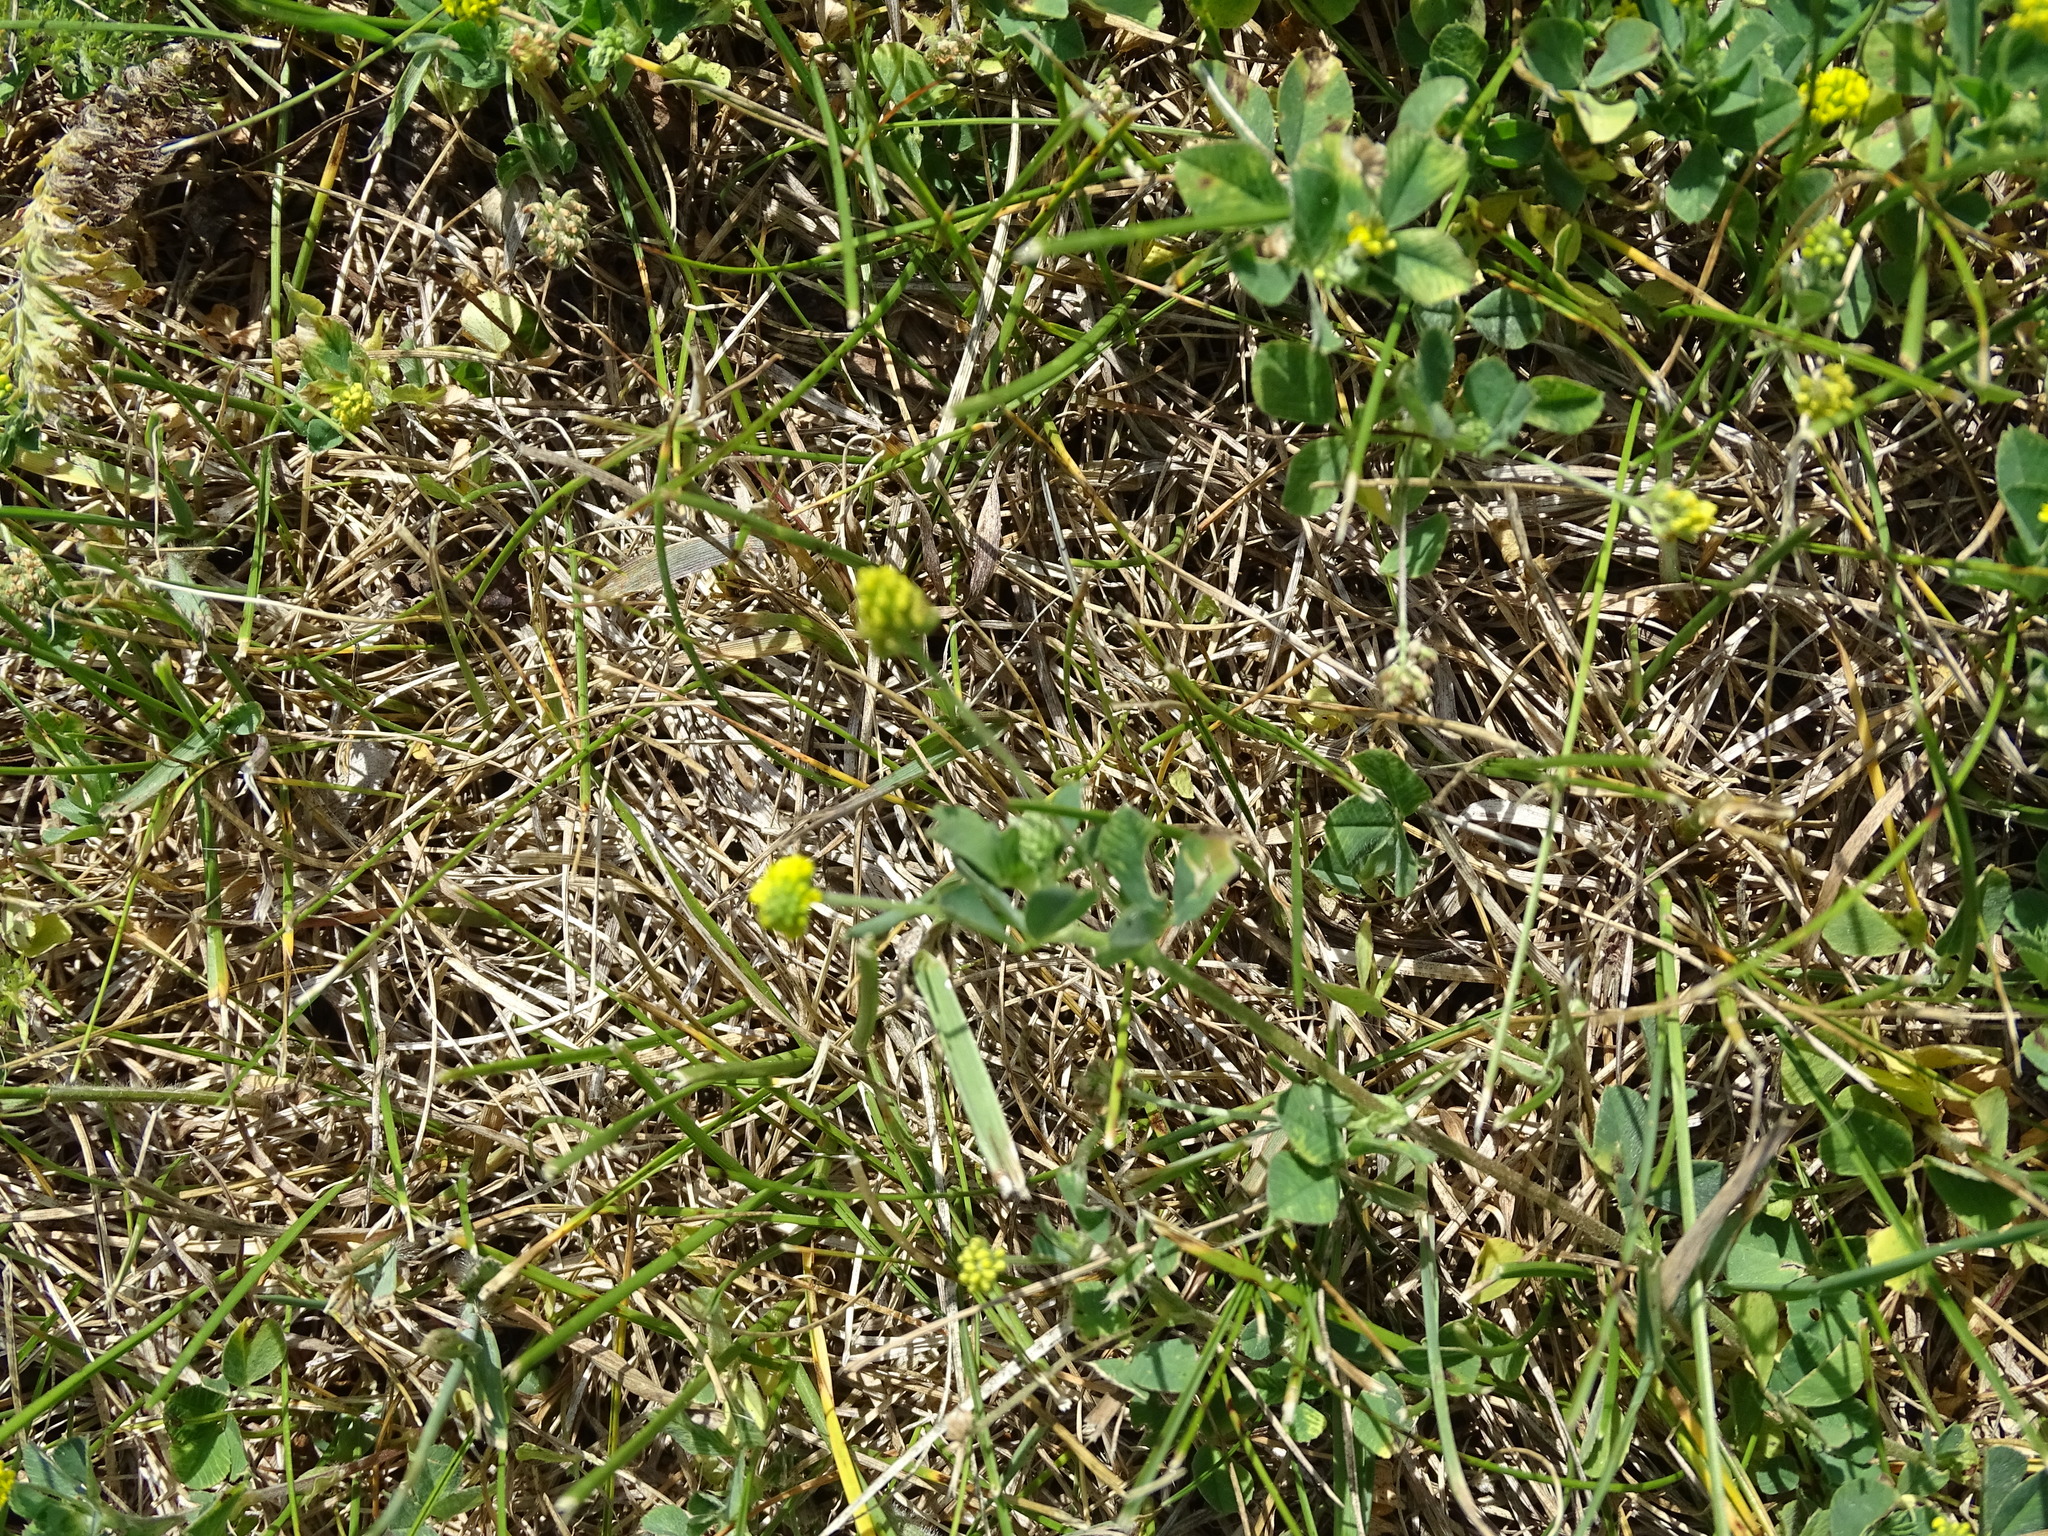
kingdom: Plantae
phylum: Tracheophyta
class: Magnoliopsida
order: Fabales
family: Fabaceae
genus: Medicago
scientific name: Medicago lupulina
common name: Black medick
